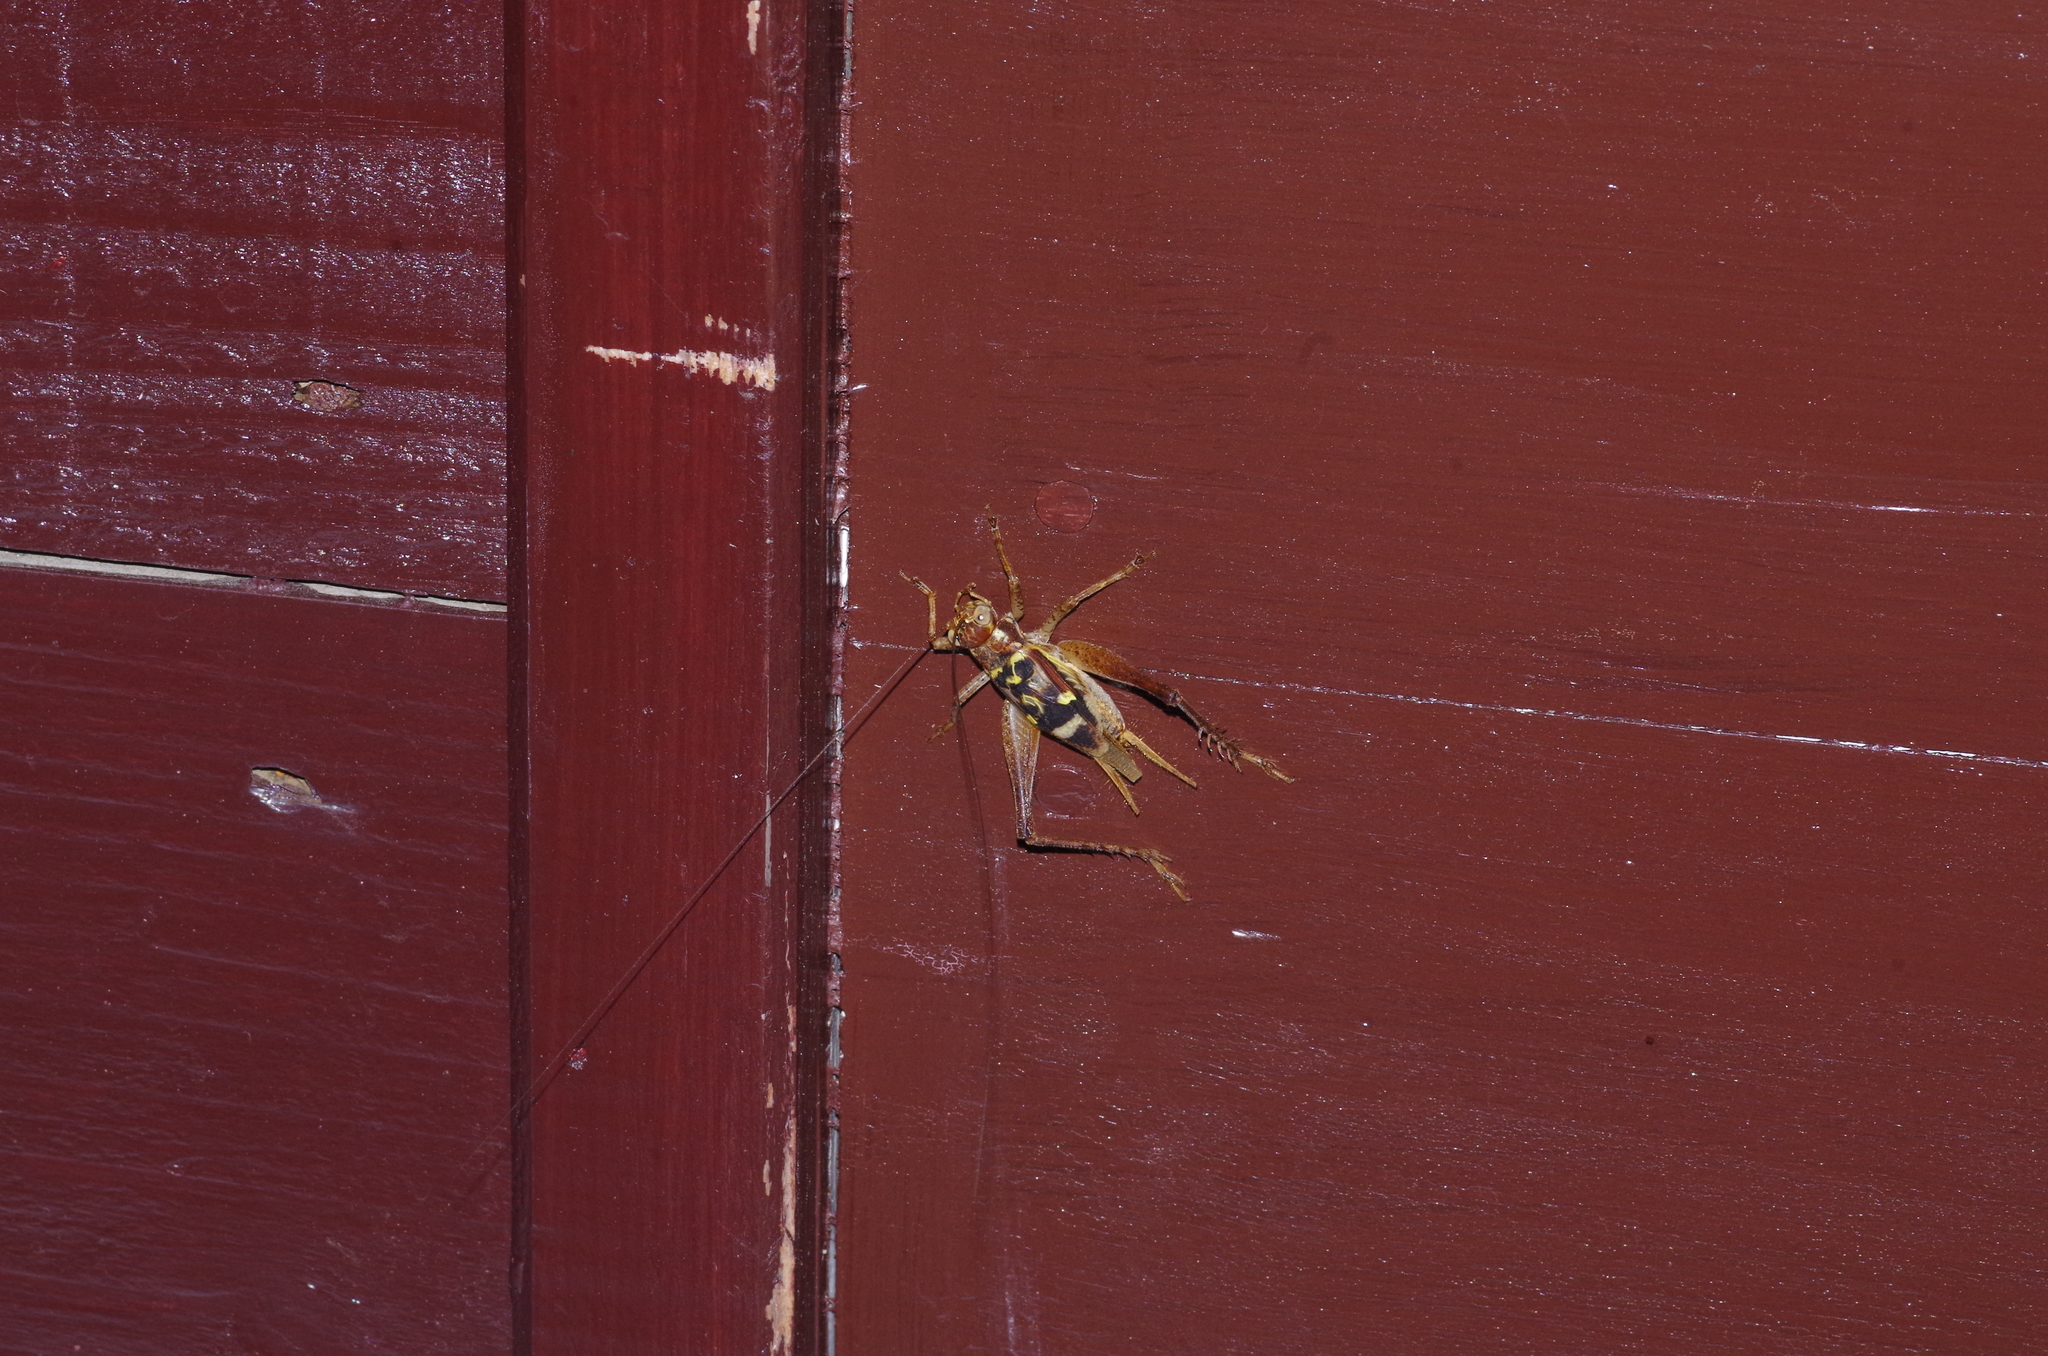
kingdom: Animalia
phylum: Arthropoda
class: Insecta
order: Orthoptera
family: Gryllidae
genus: Cardiodactylus
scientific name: Cardiodactylus guttulus
